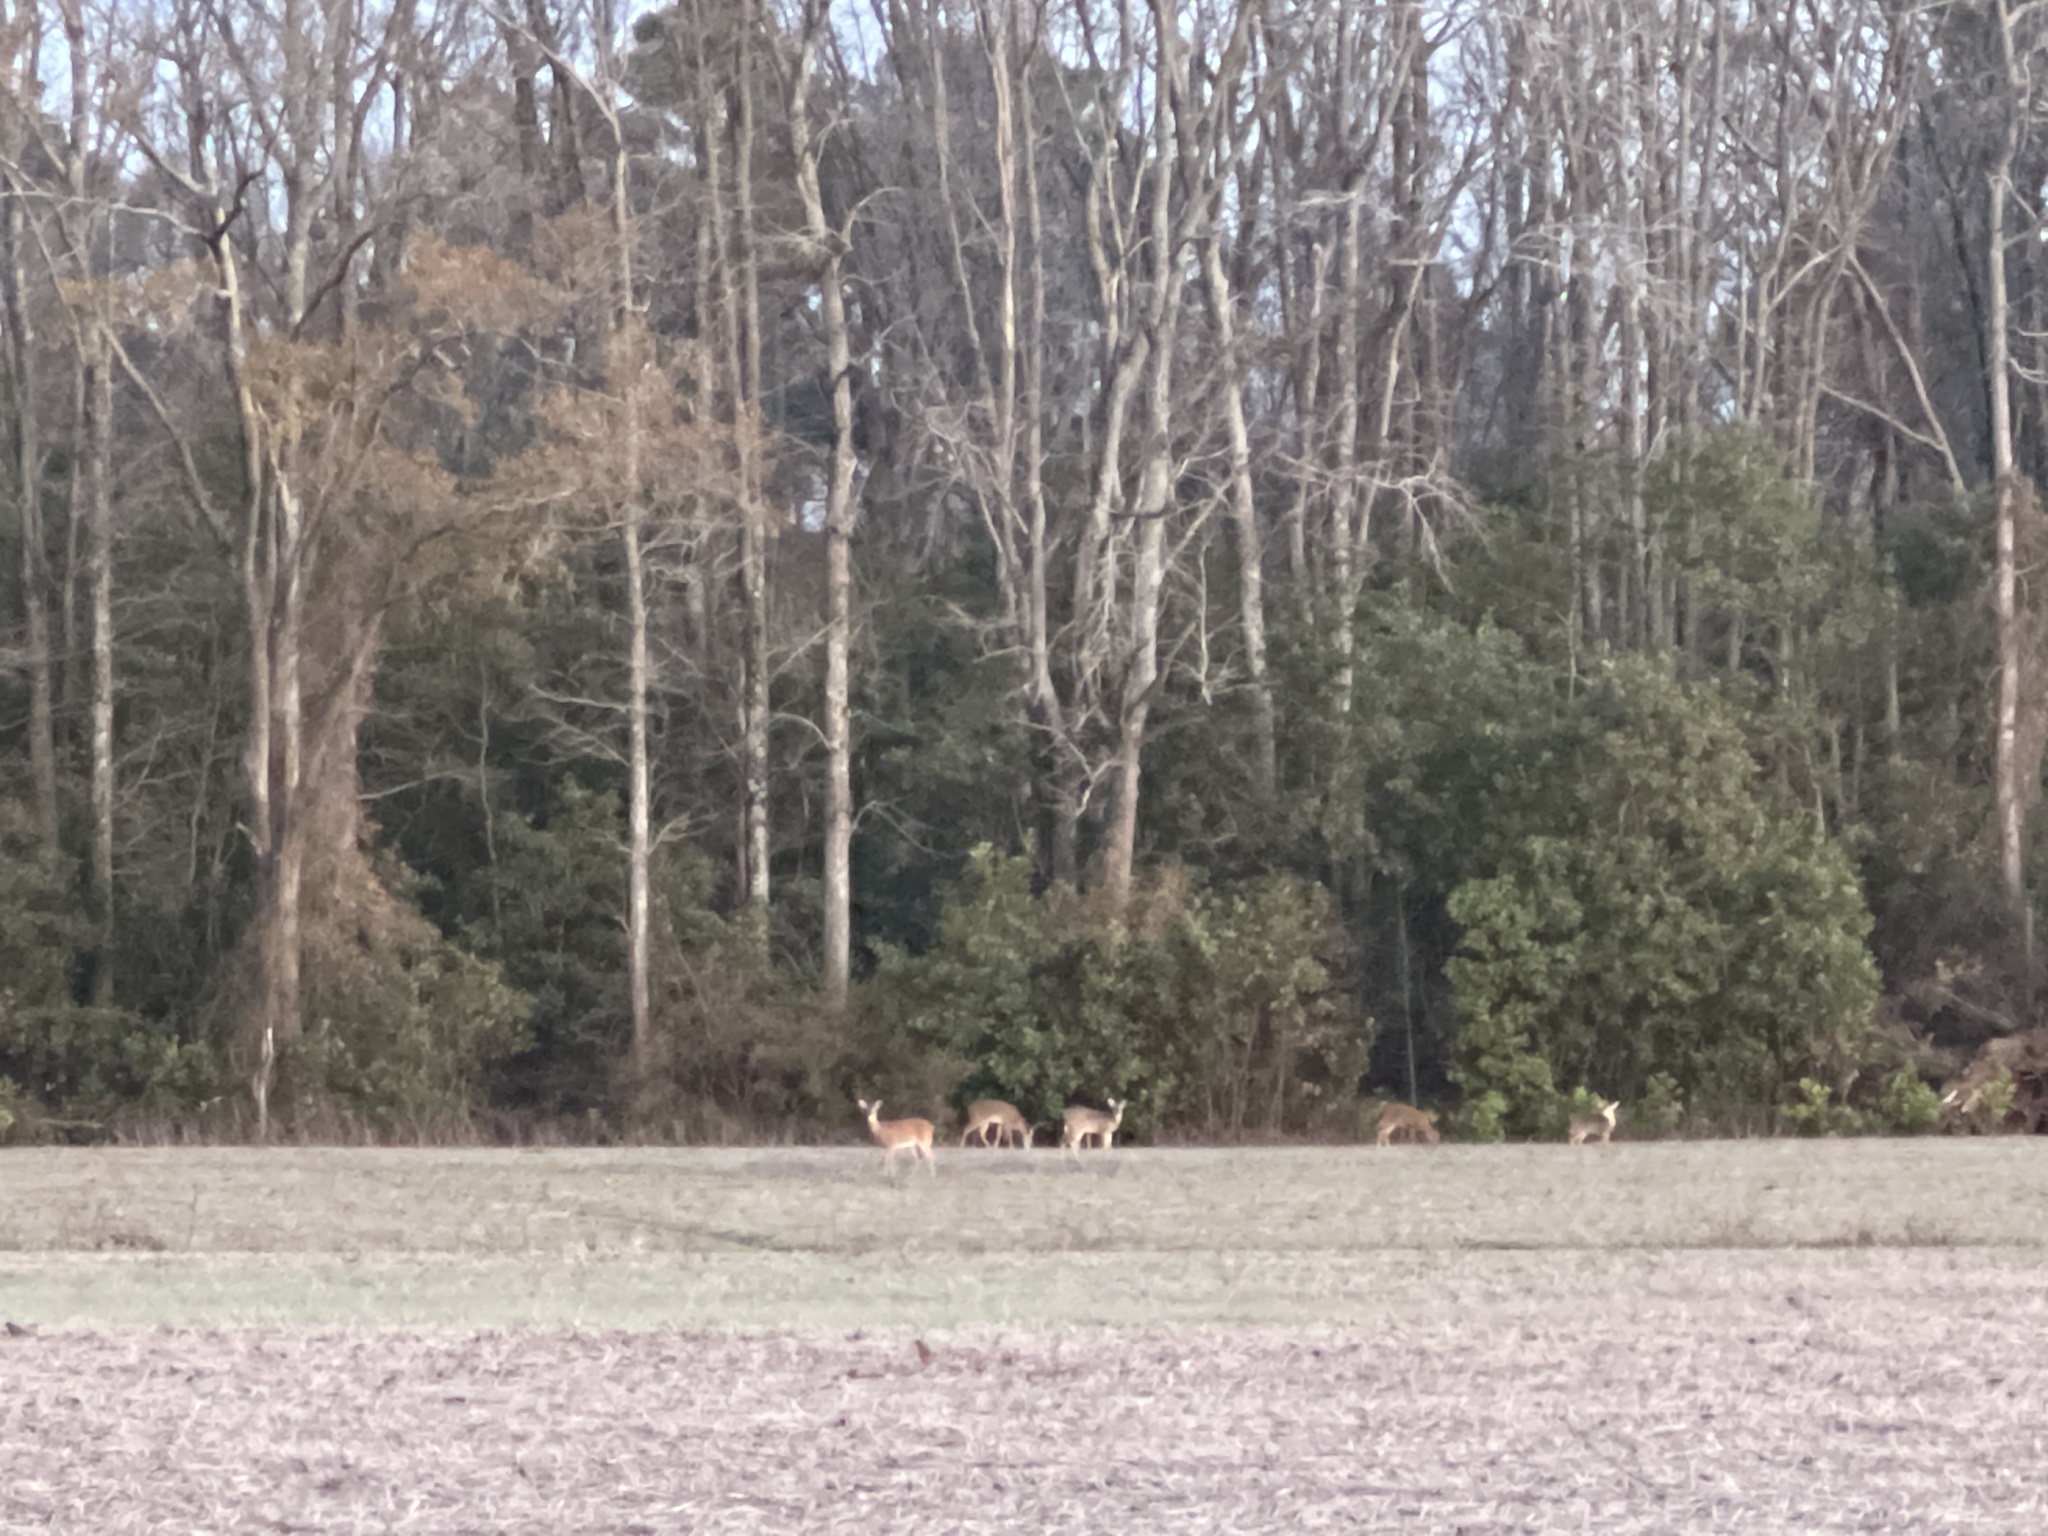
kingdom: Animalia
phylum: Chordata
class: Mammalia
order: Artiodactyla
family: Cervidae
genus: Odocoileus
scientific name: Odocoileus virginianus
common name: White-tailed deer
